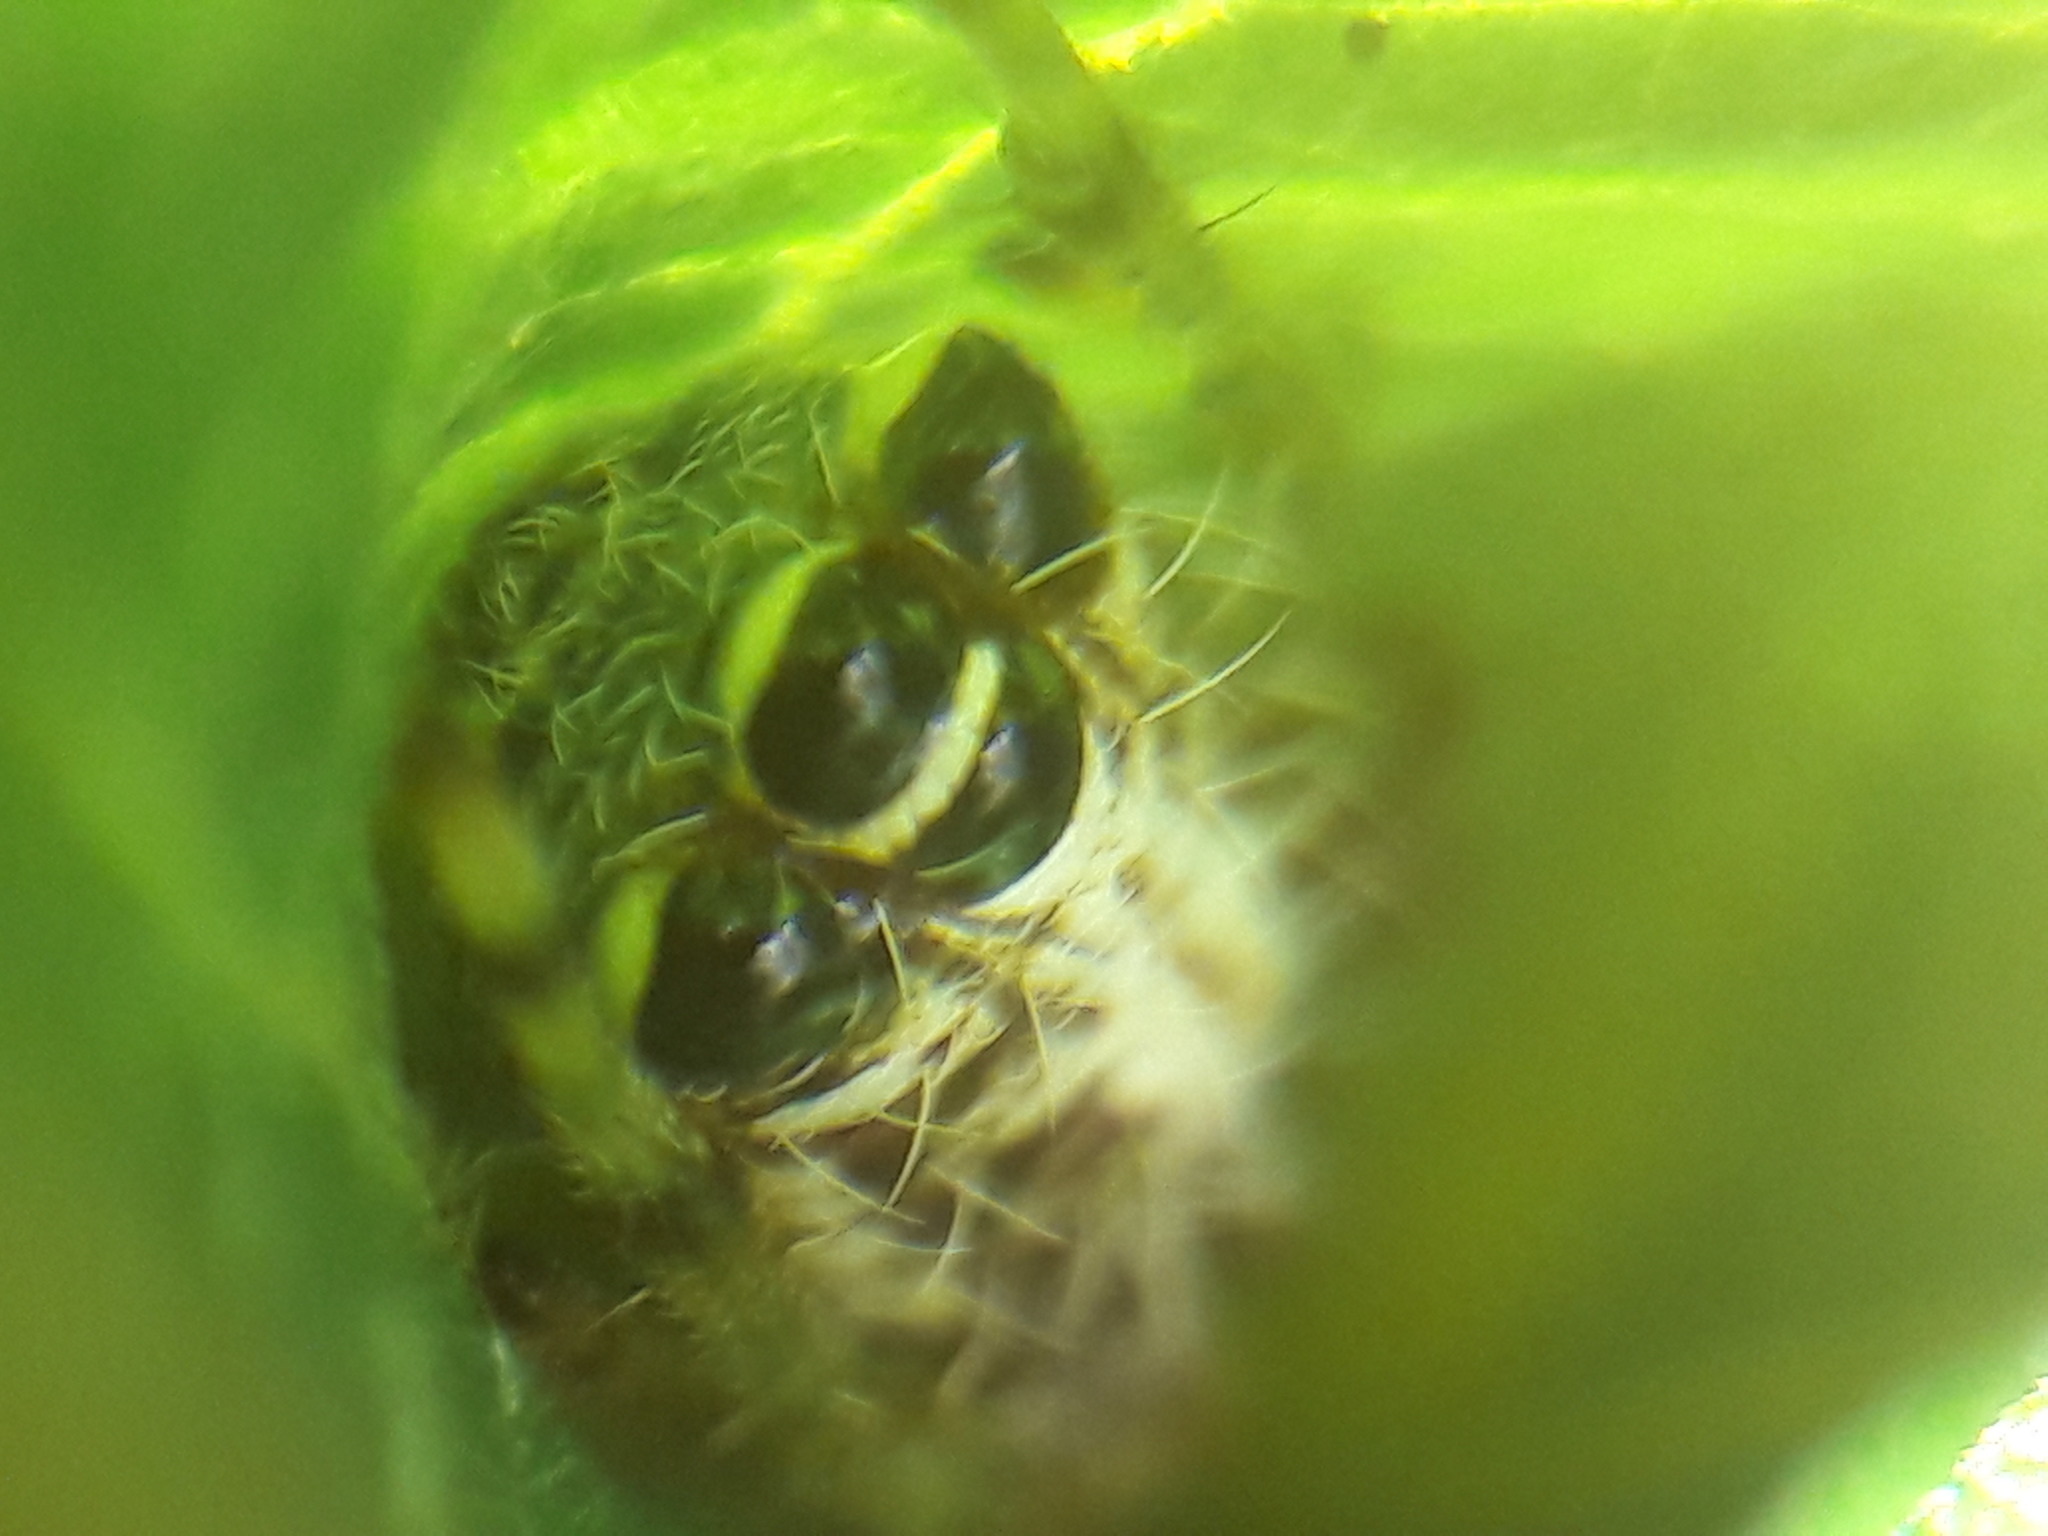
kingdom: Animalia
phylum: Arthropoda
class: Arachnida
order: Araneae
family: Araneidae
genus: Alpaida
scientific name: Alpaida truncata
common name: Orb weavers
